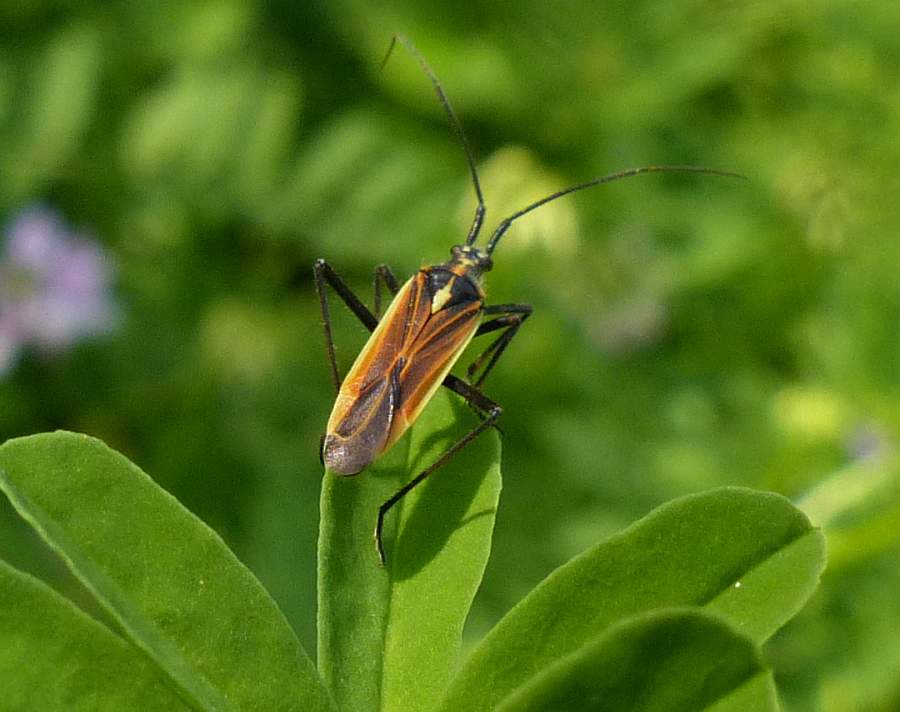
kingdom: Animalia
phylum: Arthropoda
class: Insecta
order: Hemiptera
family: Miridae
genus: Leptopterna
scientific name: Leptopterna dolabrata
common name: Meadow plant bug
